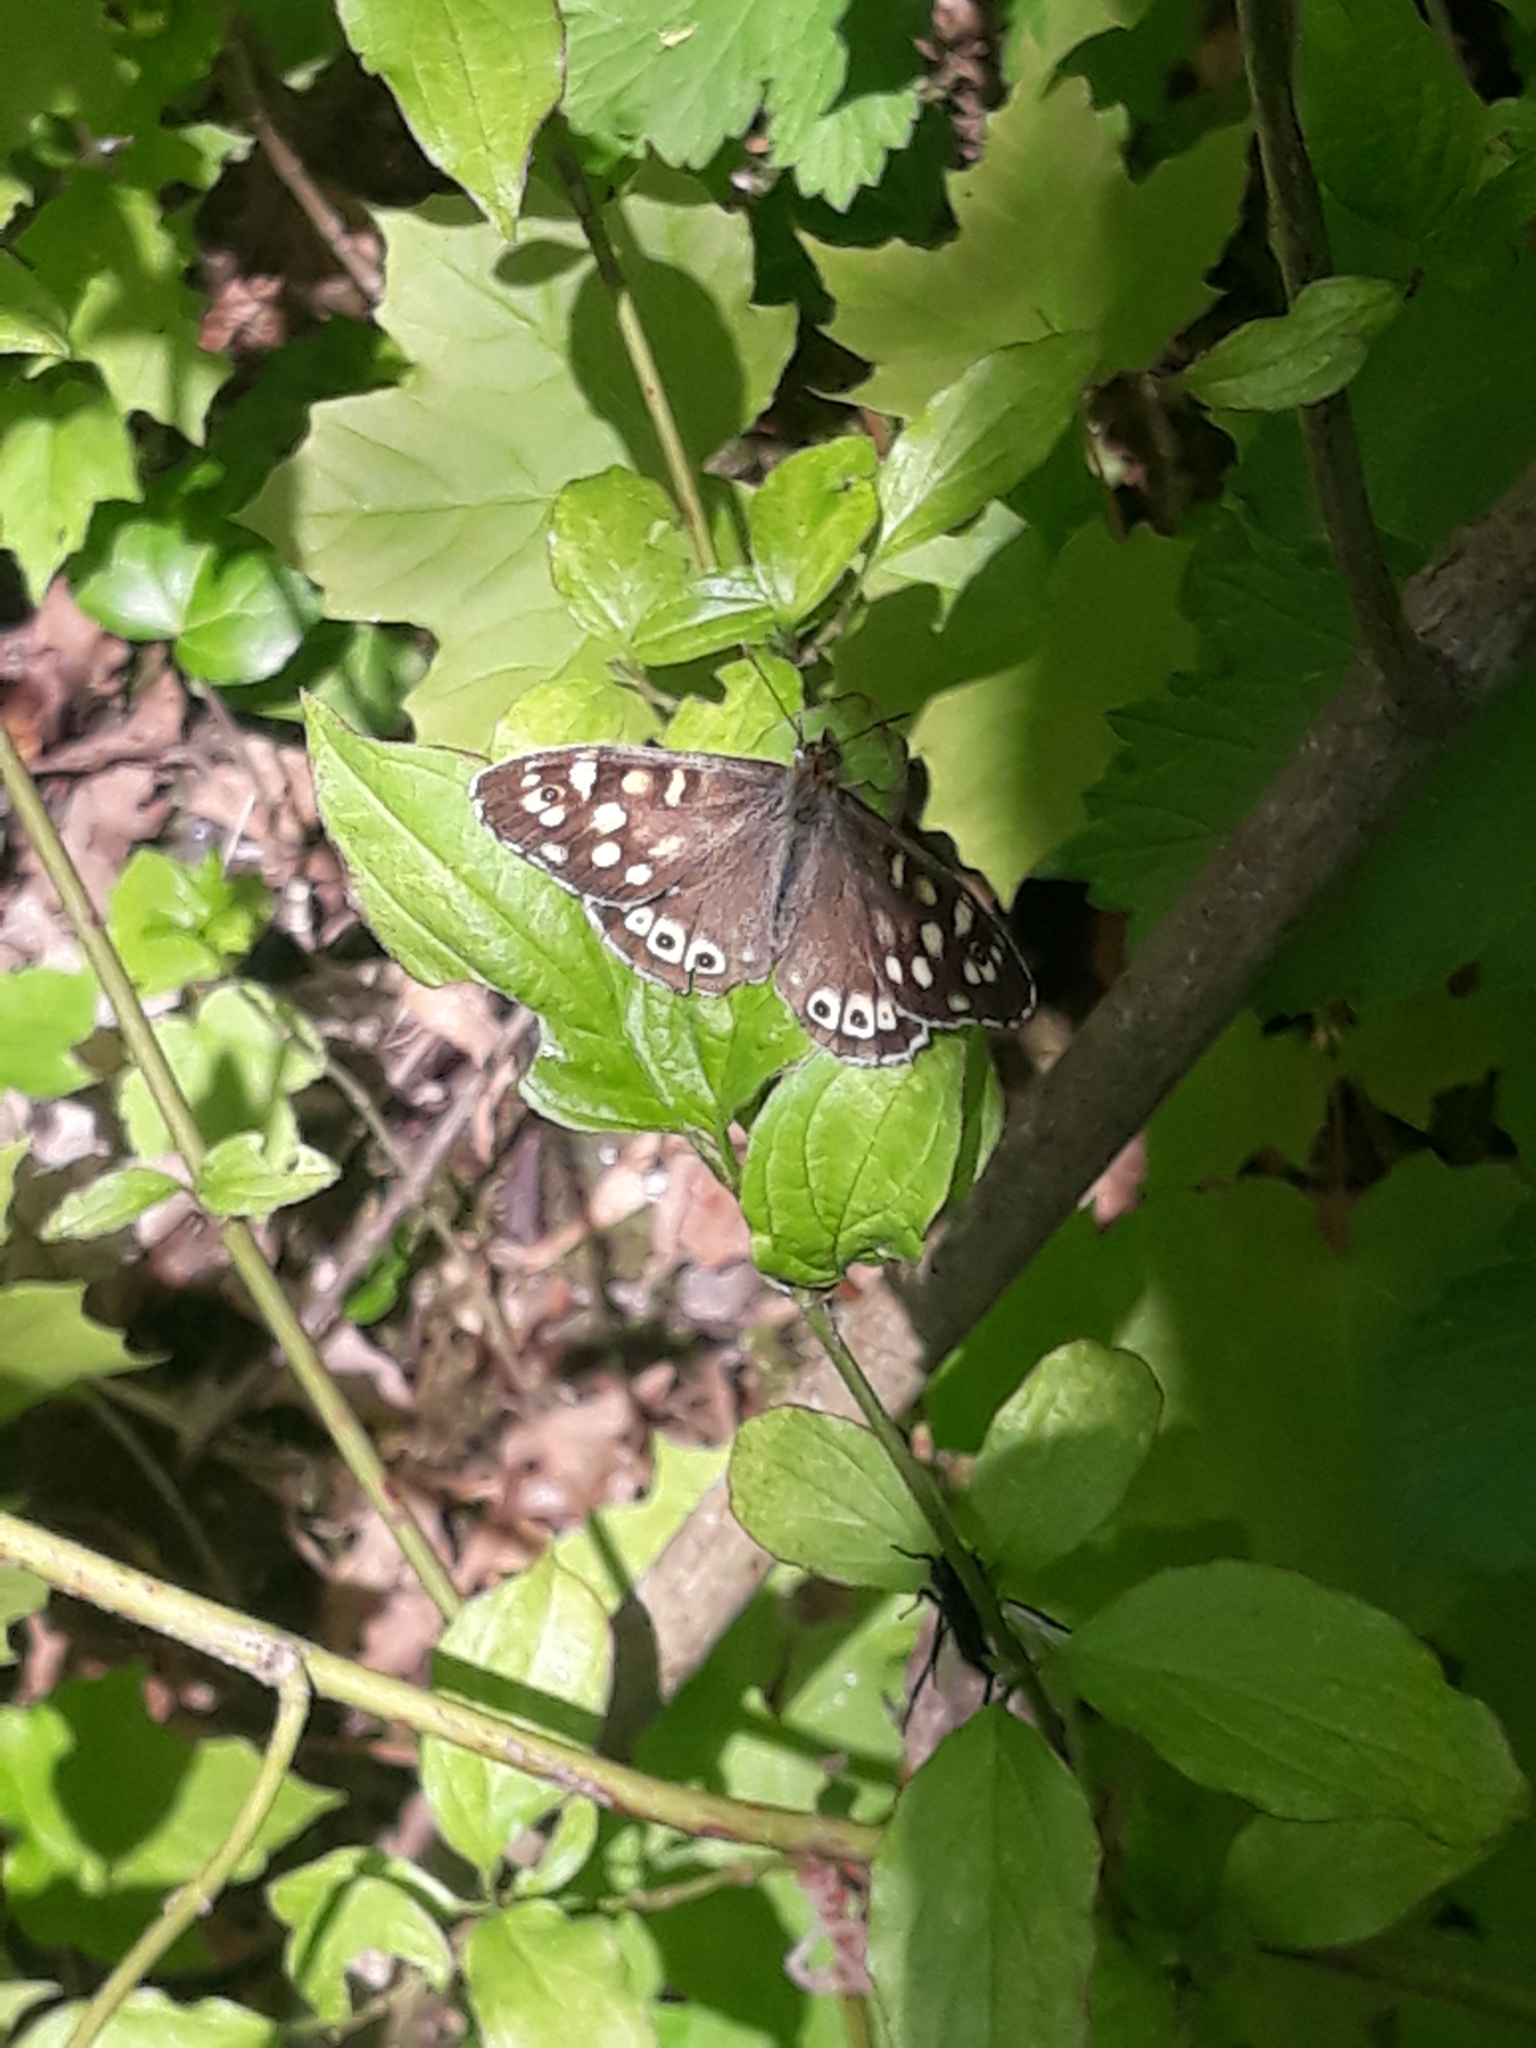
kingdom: Animalia
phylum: Arthropoda
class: Insecta
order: Lepidoptera
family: Nymphalidae
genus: Pararge
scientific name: Pararge aegeria
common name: Speckled wood
